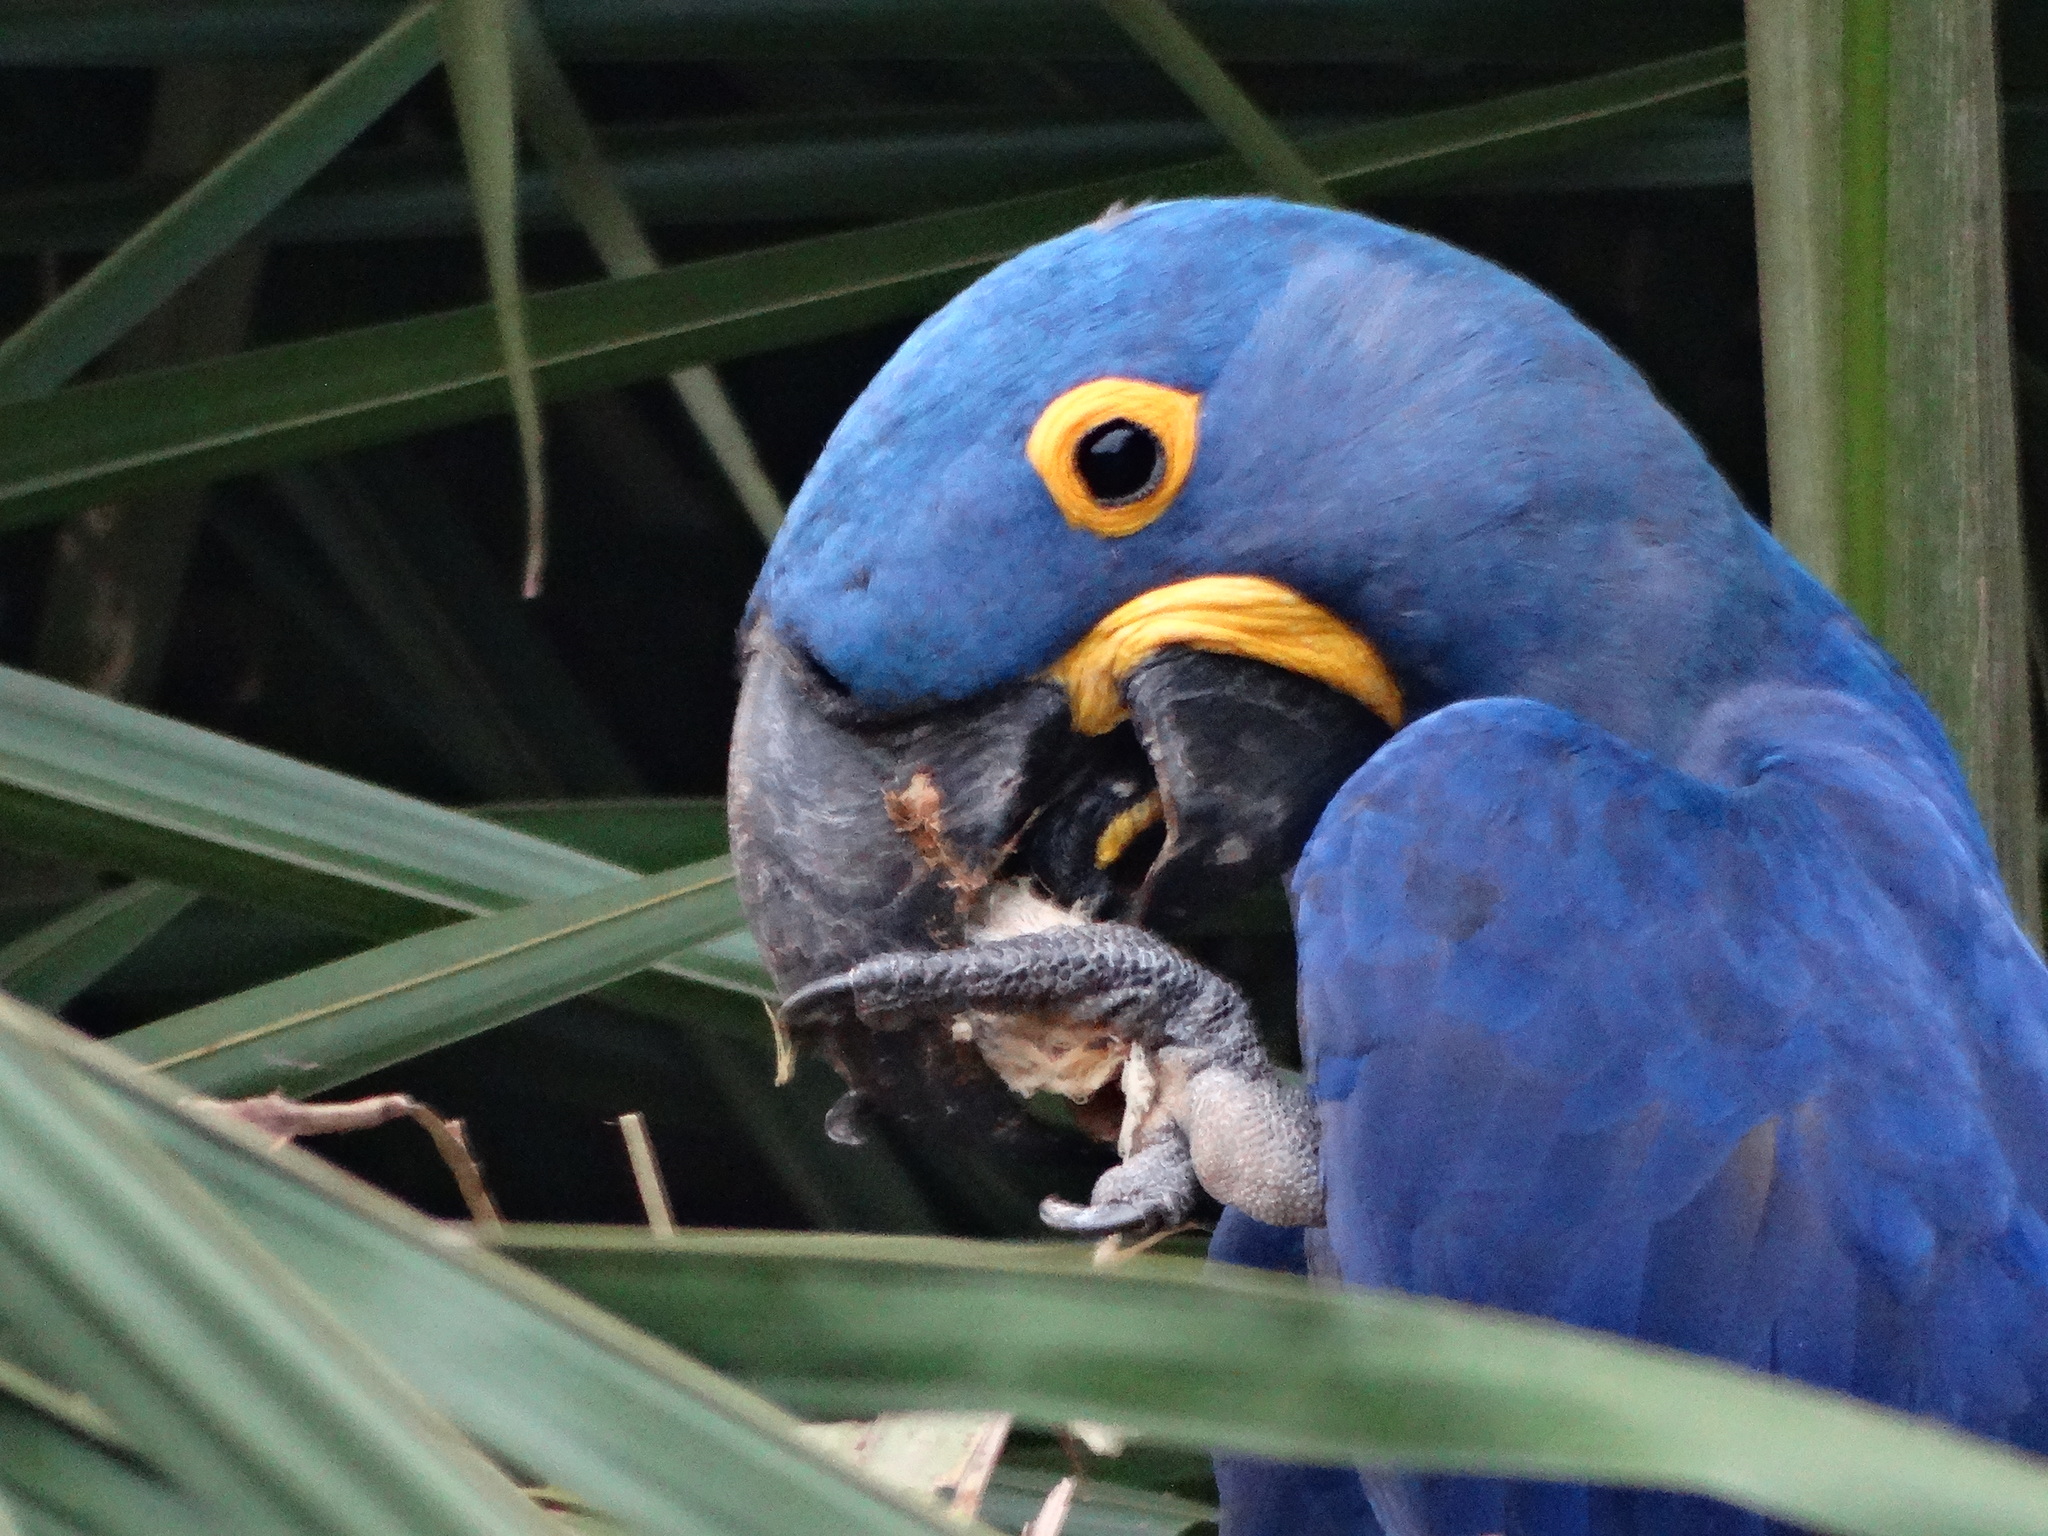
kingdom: Animalia
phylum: Chordata
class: Aves
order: Psittaciformes
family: Psittacidae
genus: Anodorhynchus
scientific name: Anodorhynchus hyacinthinus
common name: Hyacinth macaw
